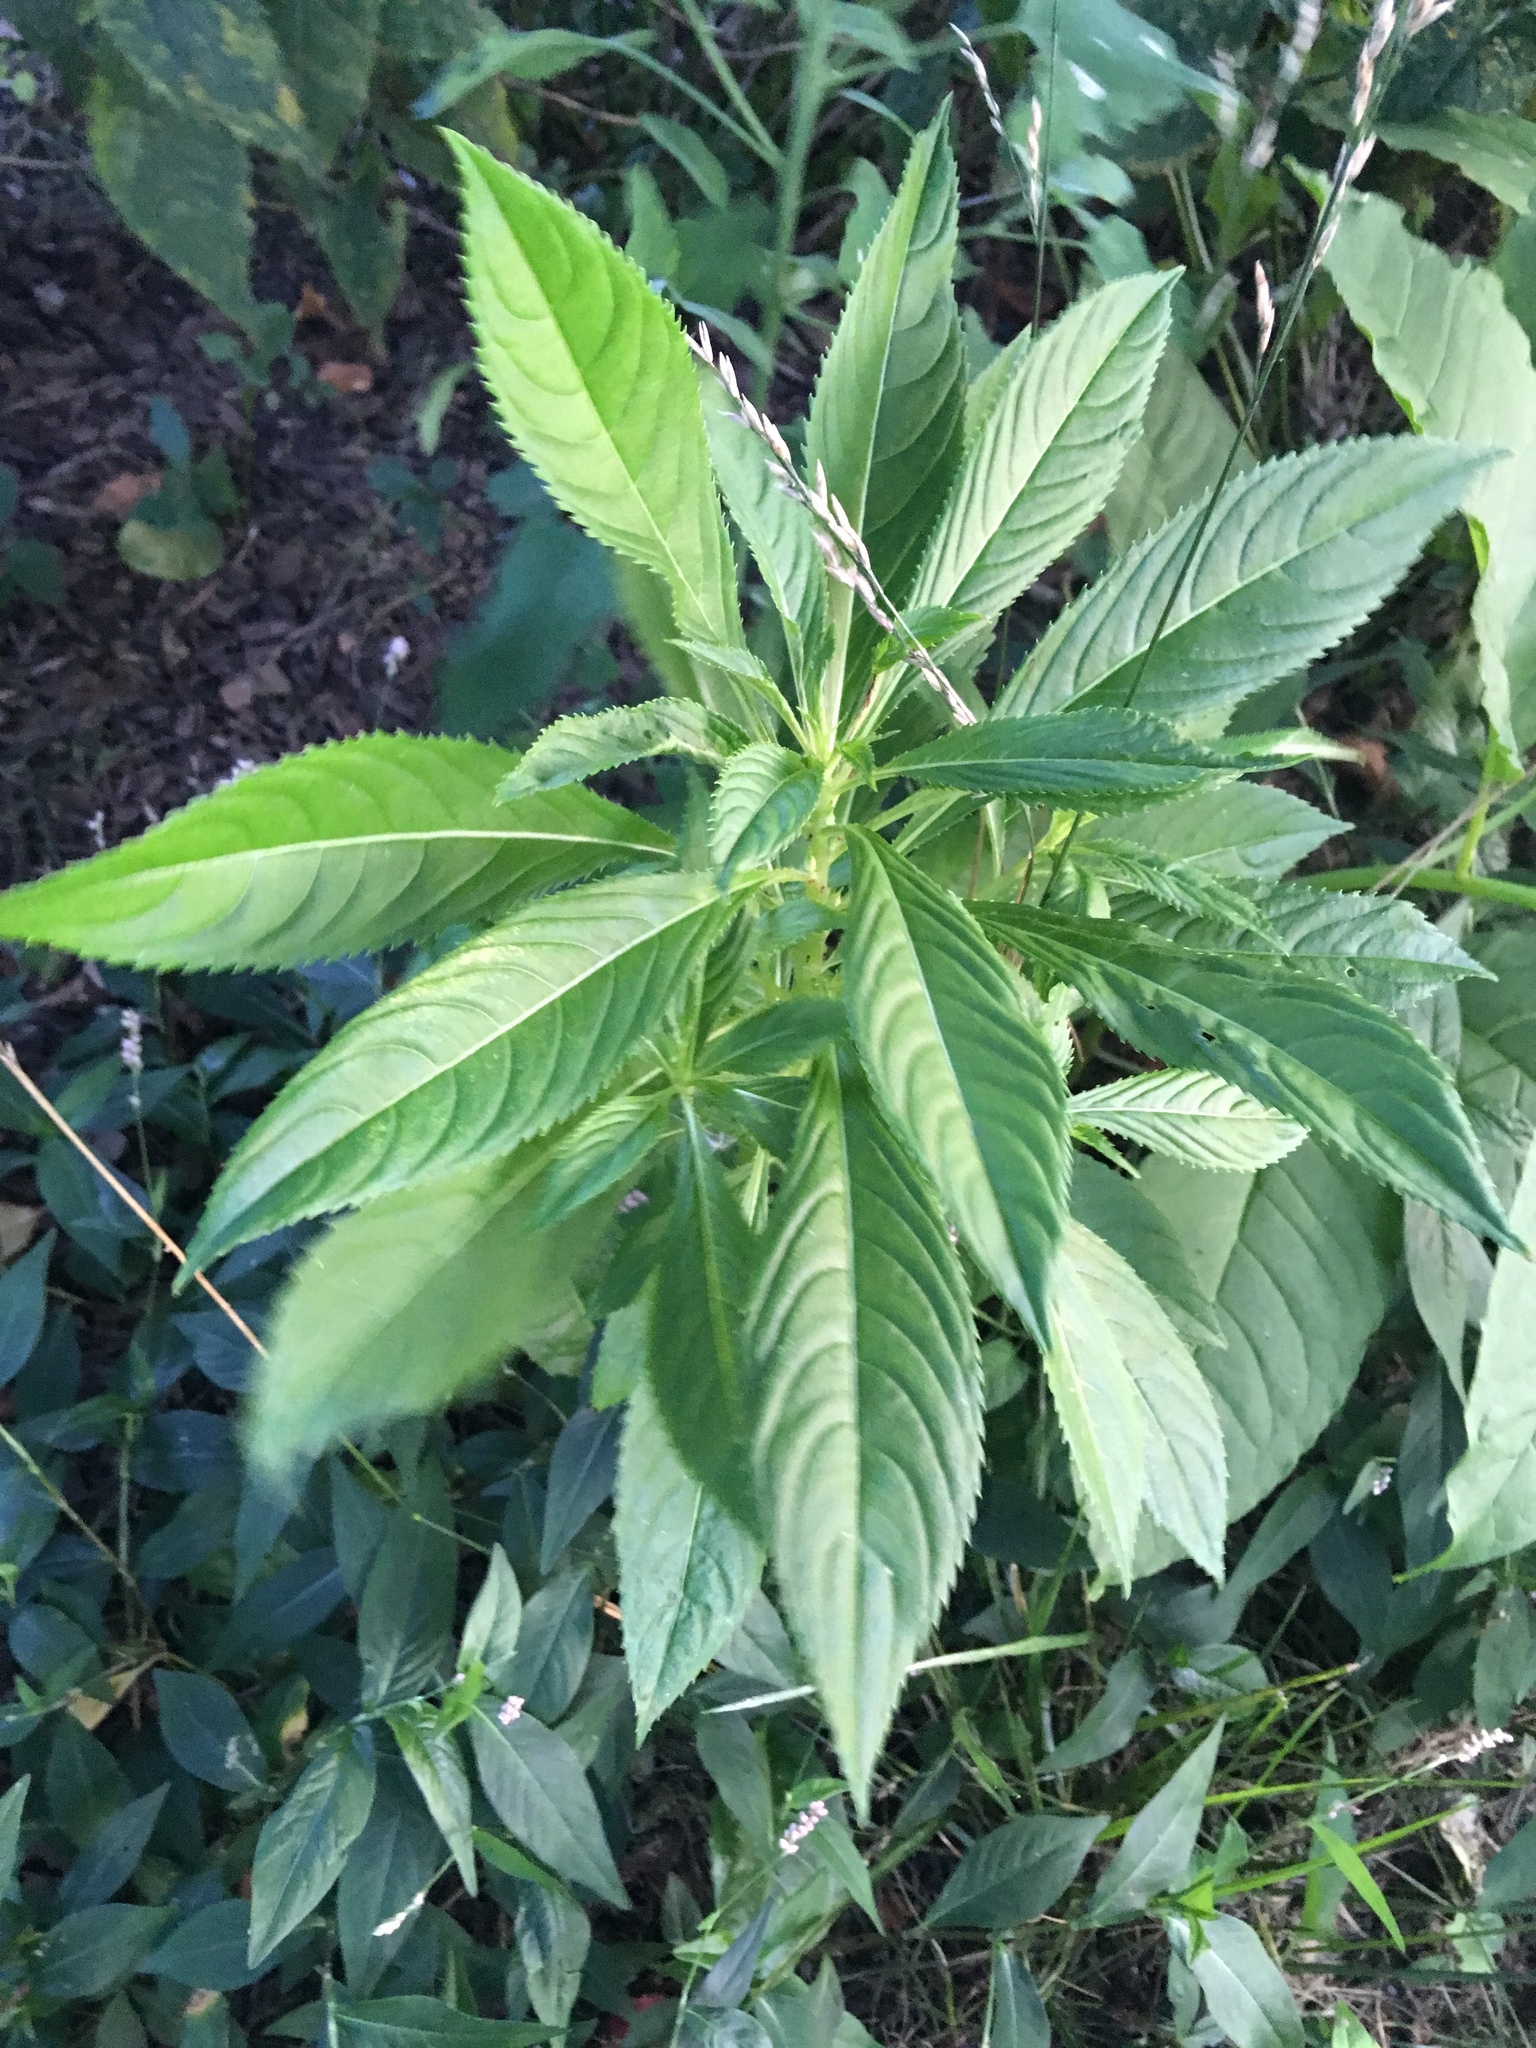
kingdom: Plantae
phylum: Tracheophyta
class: Magnoliopsida
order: Ericales
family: Balsaminaceae
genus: Impatiens
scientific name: Impatiens balsamina
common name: Balsam
